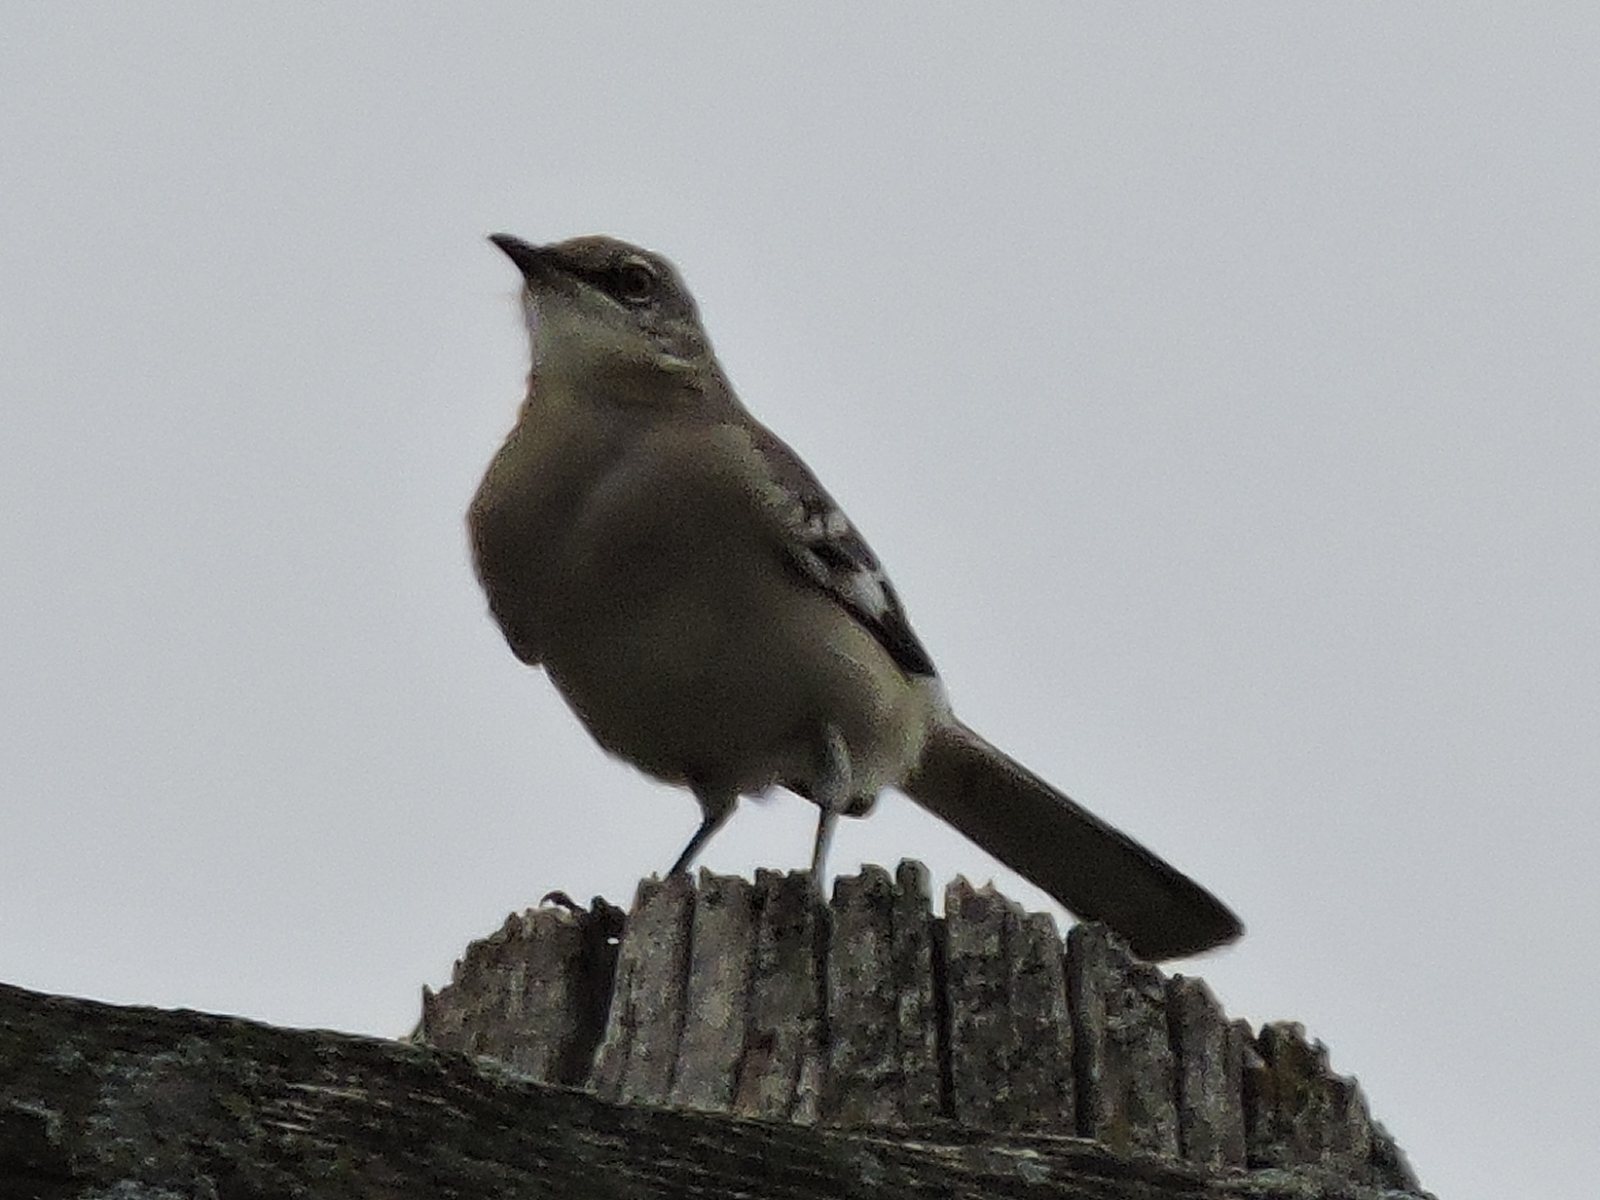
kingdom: Animalia
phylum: Chordata
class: Aves
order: Passeriformes
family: Mimidae
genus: Mimus
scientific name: Mimus polyglottos
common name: Northern mockingbird
